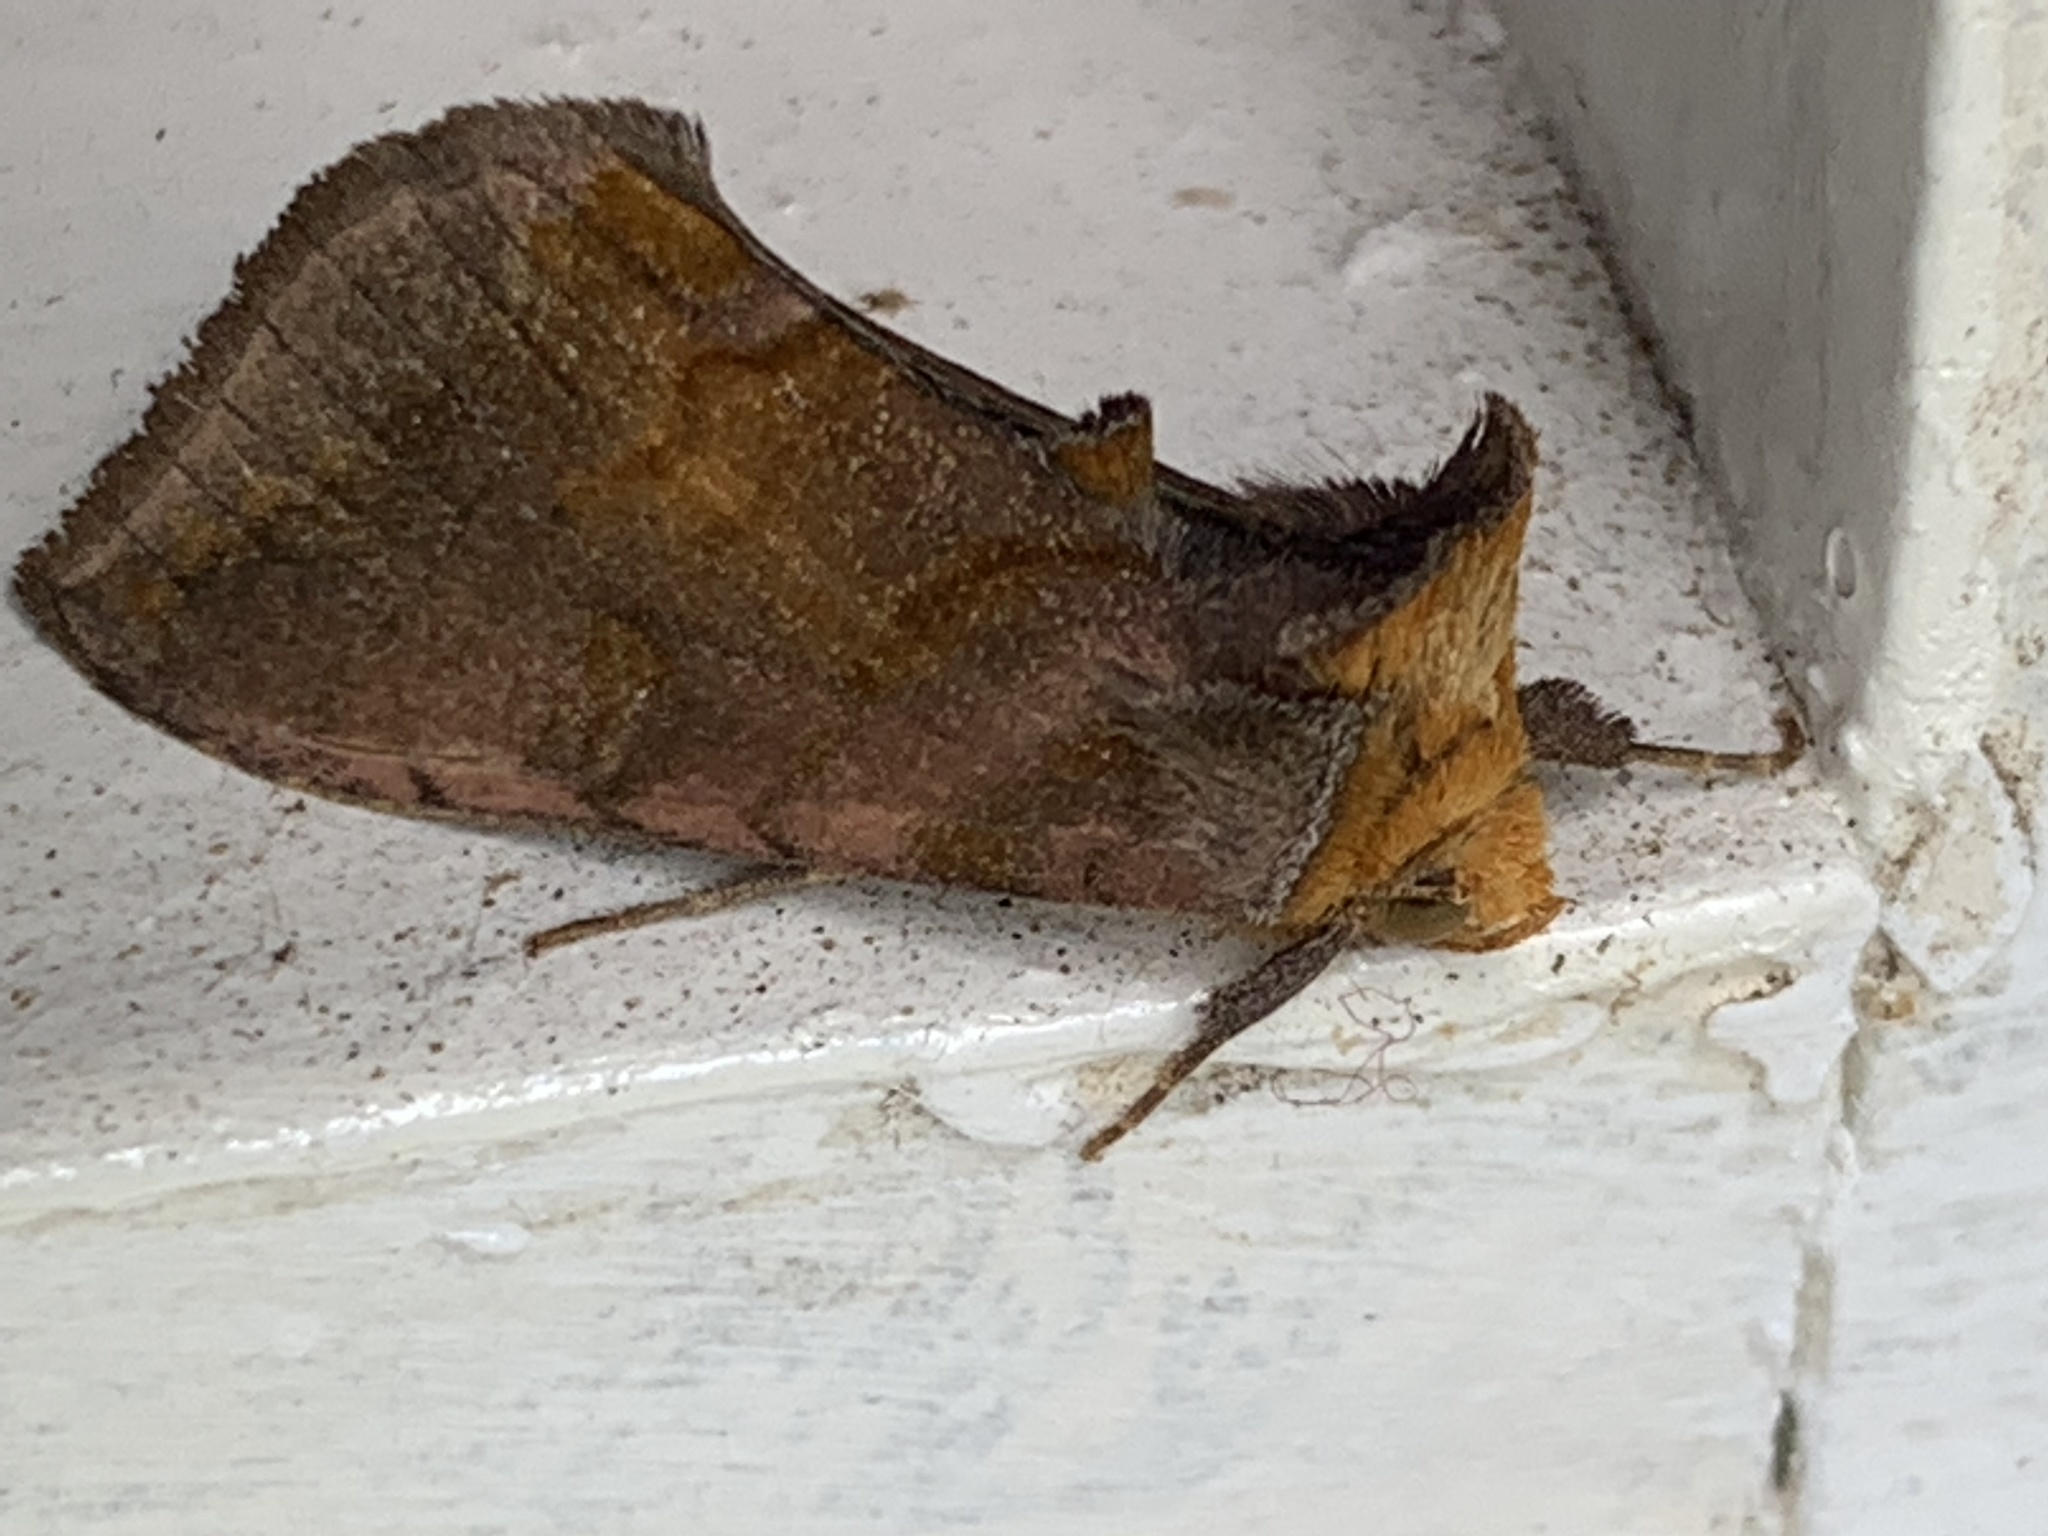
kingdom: Animalia
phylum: Arthropoda
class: Insecta
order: Lepidoptera
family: Noctuidae
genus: Allagrapha
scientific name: Allagrapha aerea
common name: Unspotted looper moth
